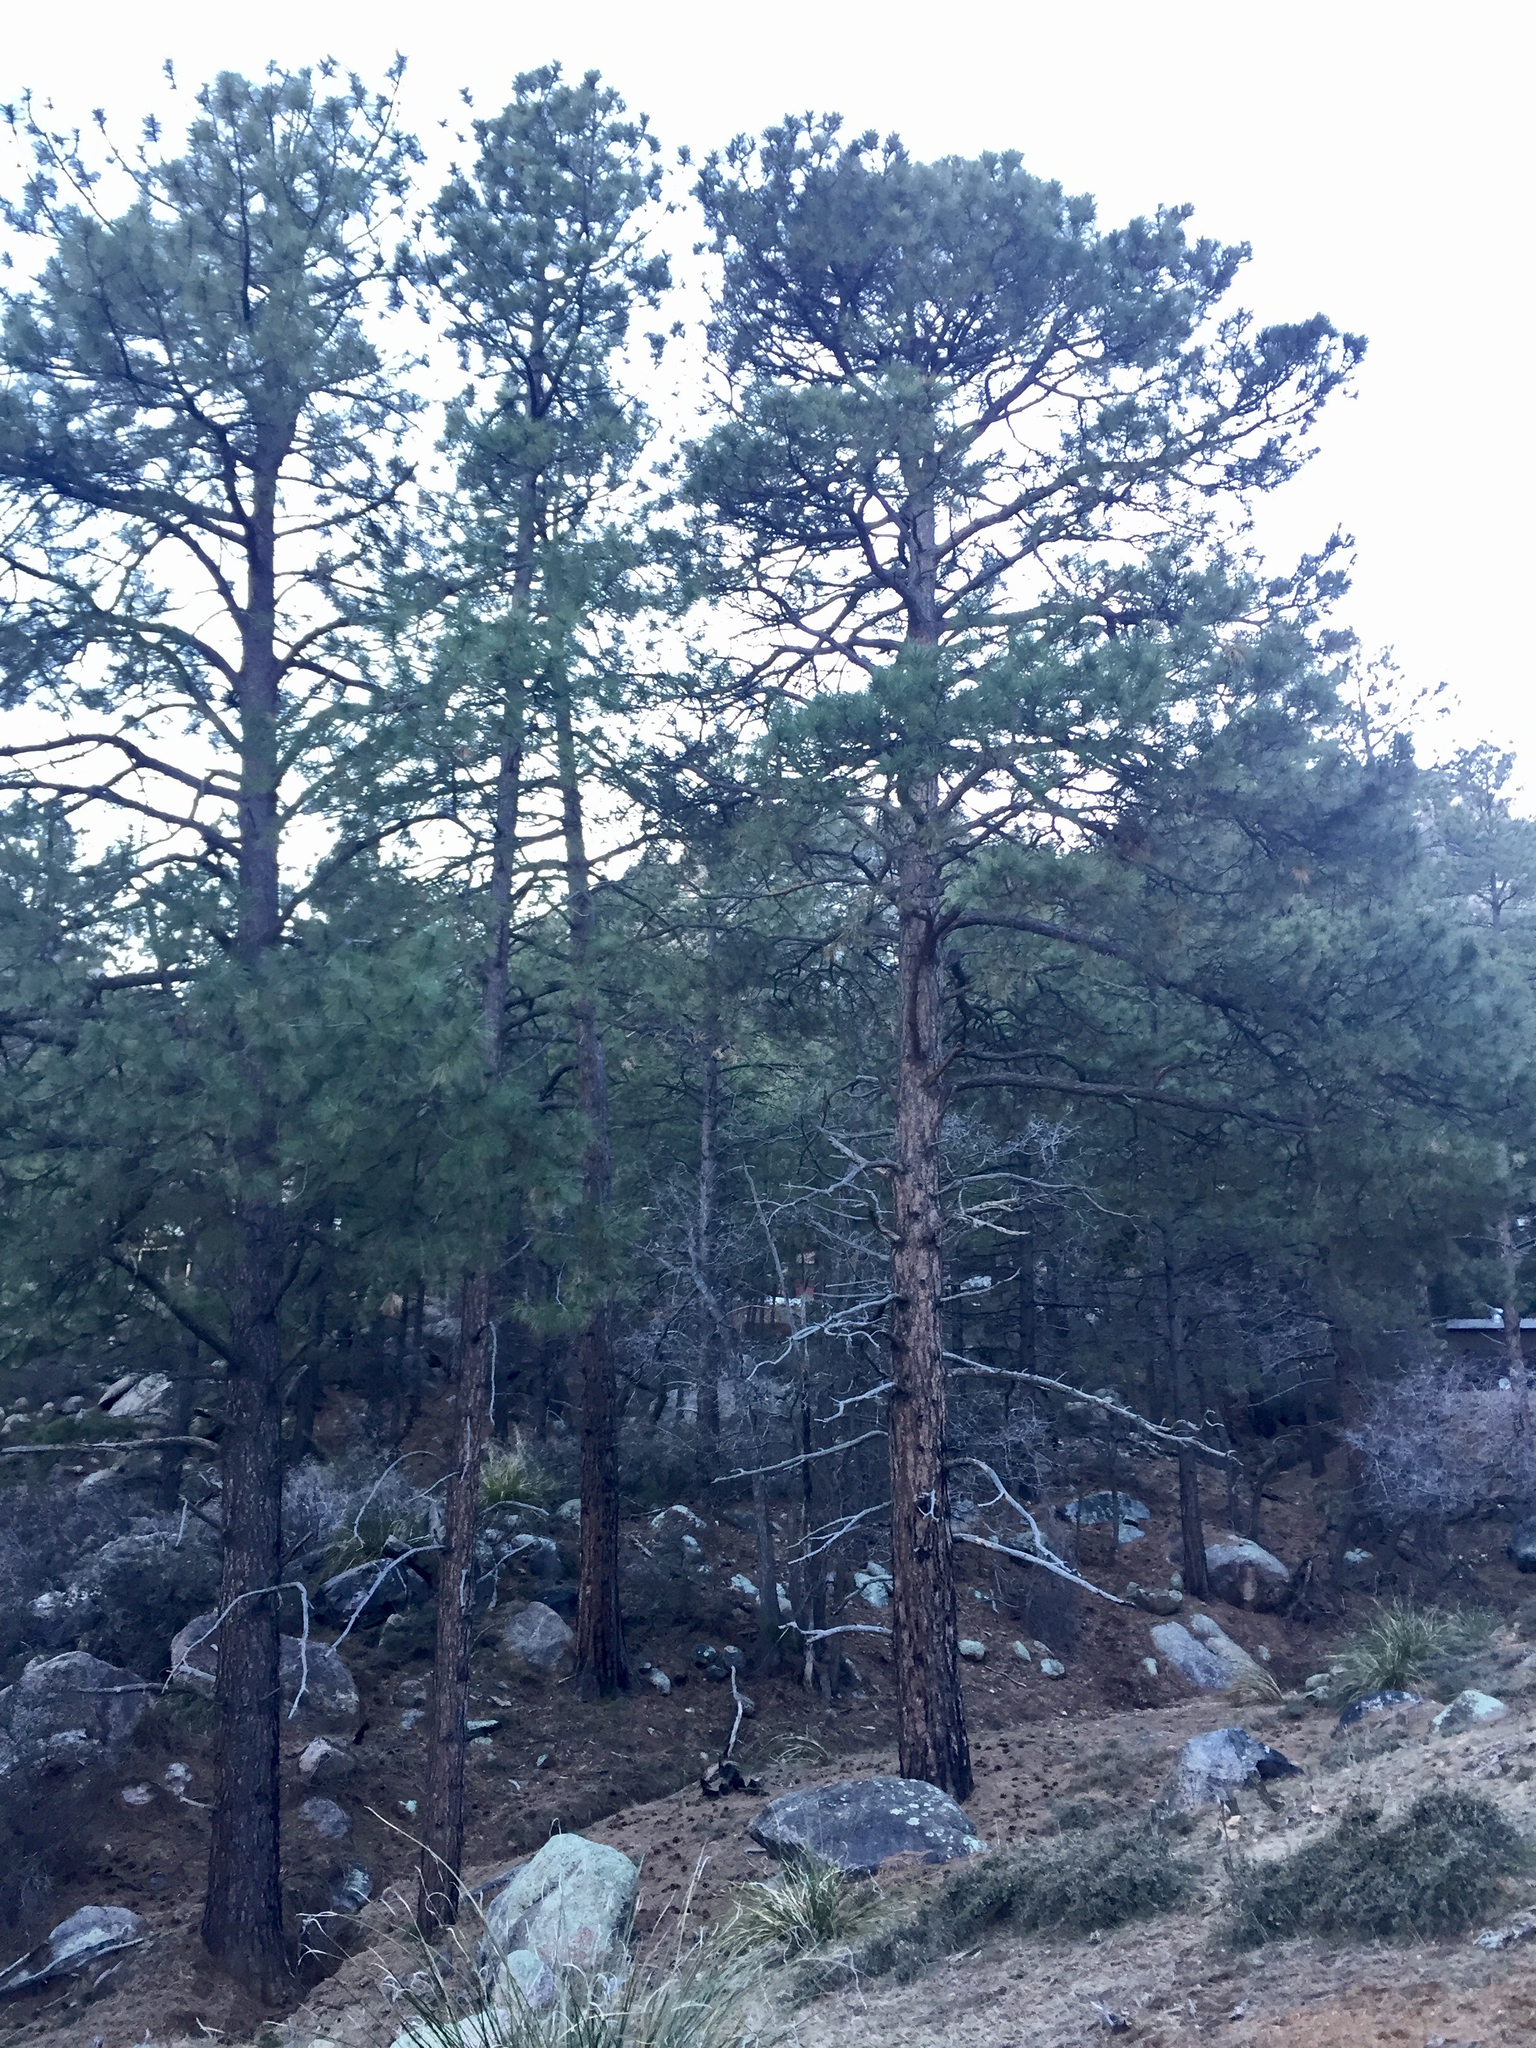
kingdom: Plantae
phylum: Tracheophyta
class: Pinopsida
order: Pinales
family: Pinaceae
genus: Pinus
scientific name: Pinus ponderosa
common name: Western yellow-pine
